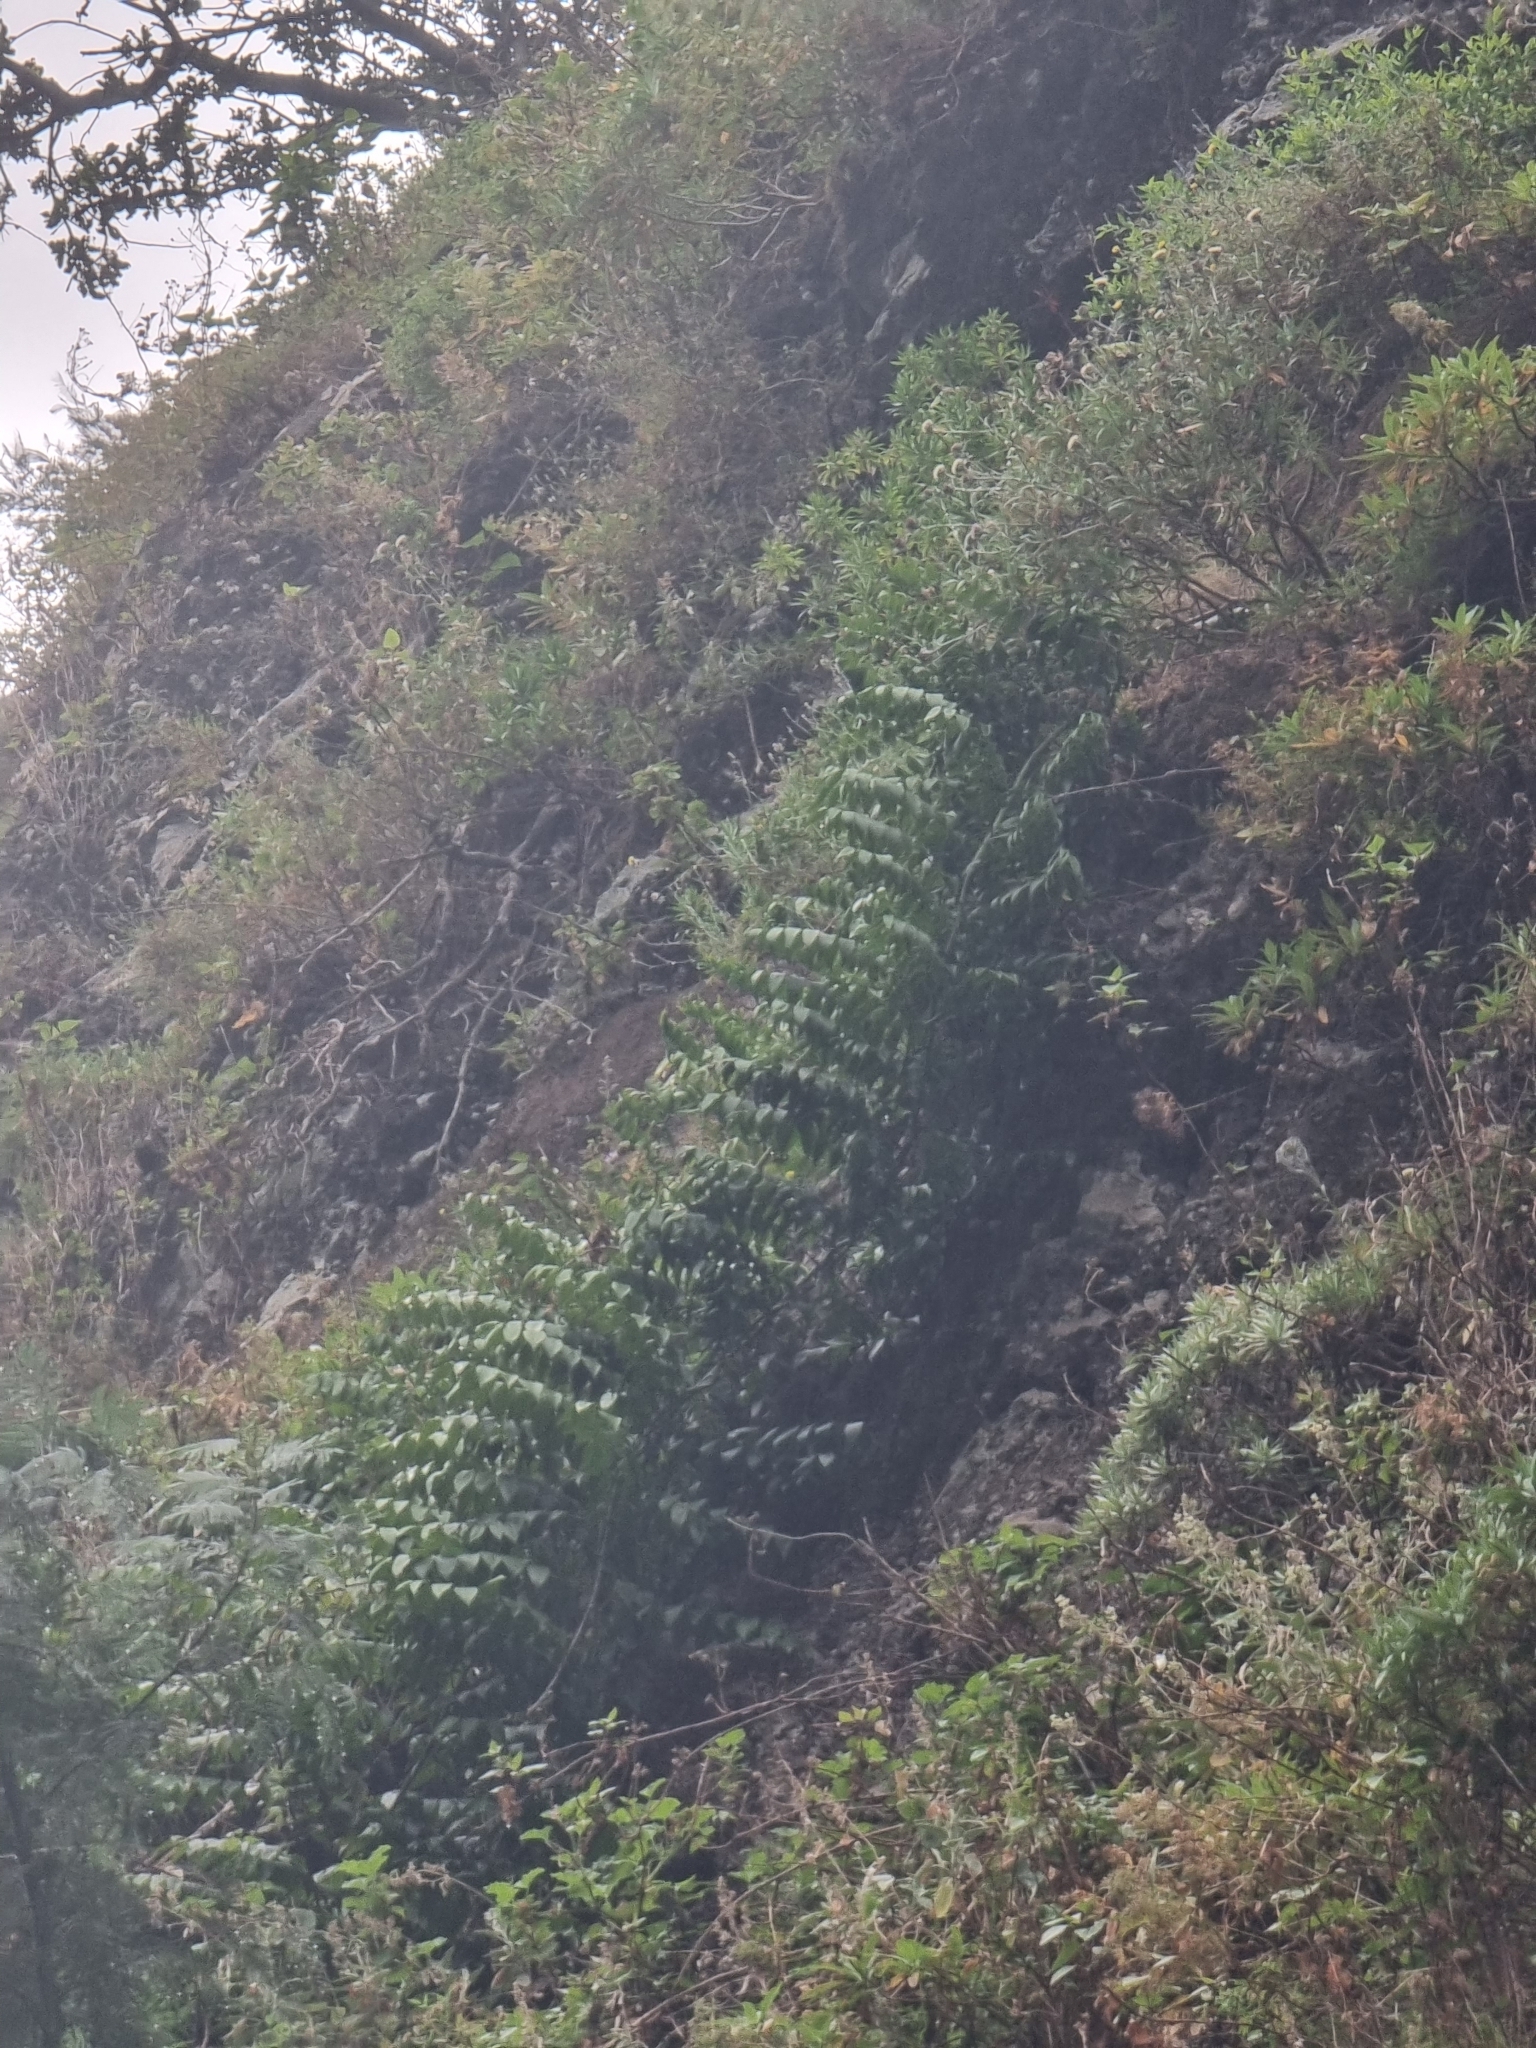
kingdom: Plantae
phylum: Tracheophyta
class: Liliopsida
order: Asparagales
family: Asparagaceae
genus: Semele
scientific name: Semele androgyna
